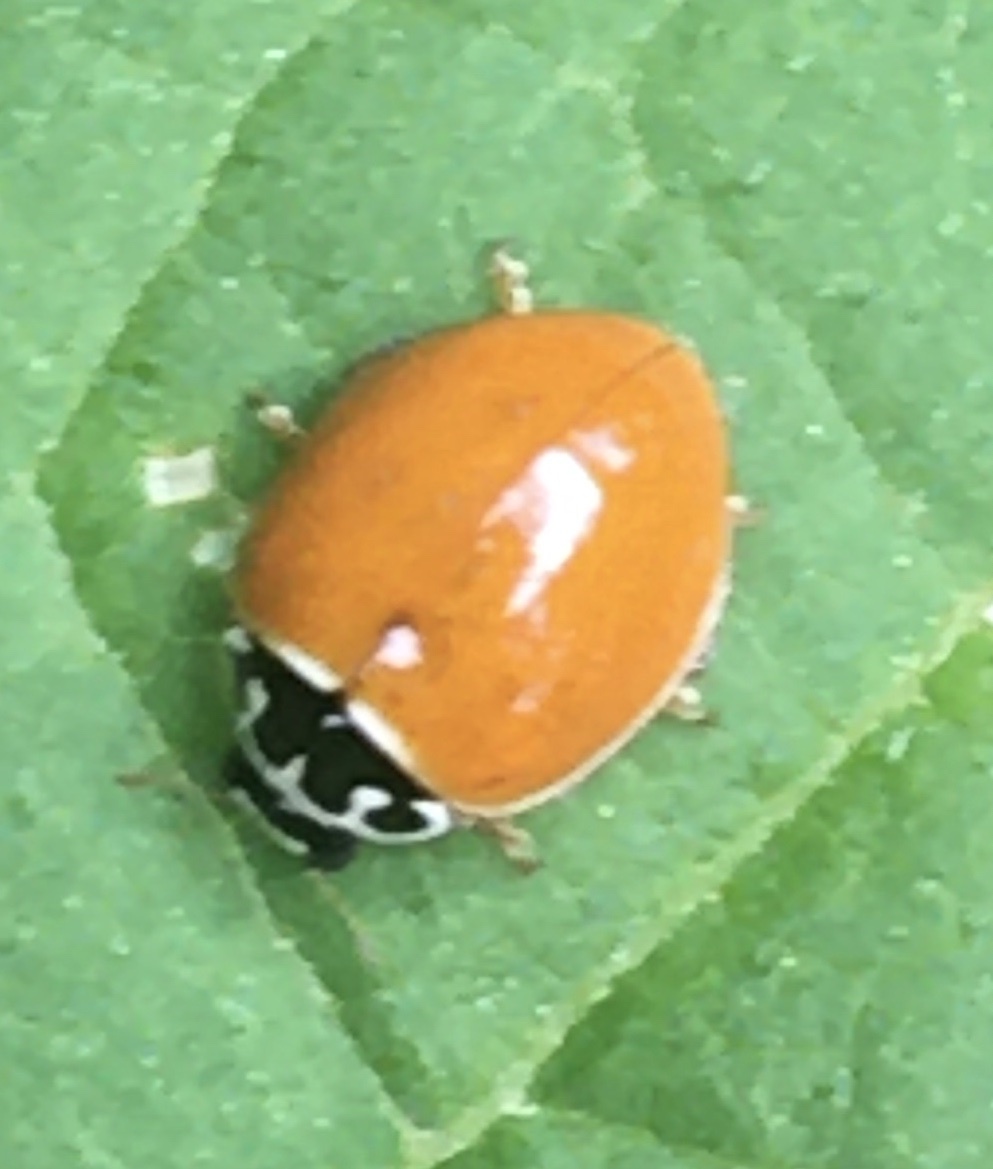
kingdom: Animalia
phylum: Arthropoda
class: Insecta
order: Coleoptera
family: Coccinellidae
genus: Cycloneda
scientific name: Cycloneda munda
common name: Polished lady beetle
